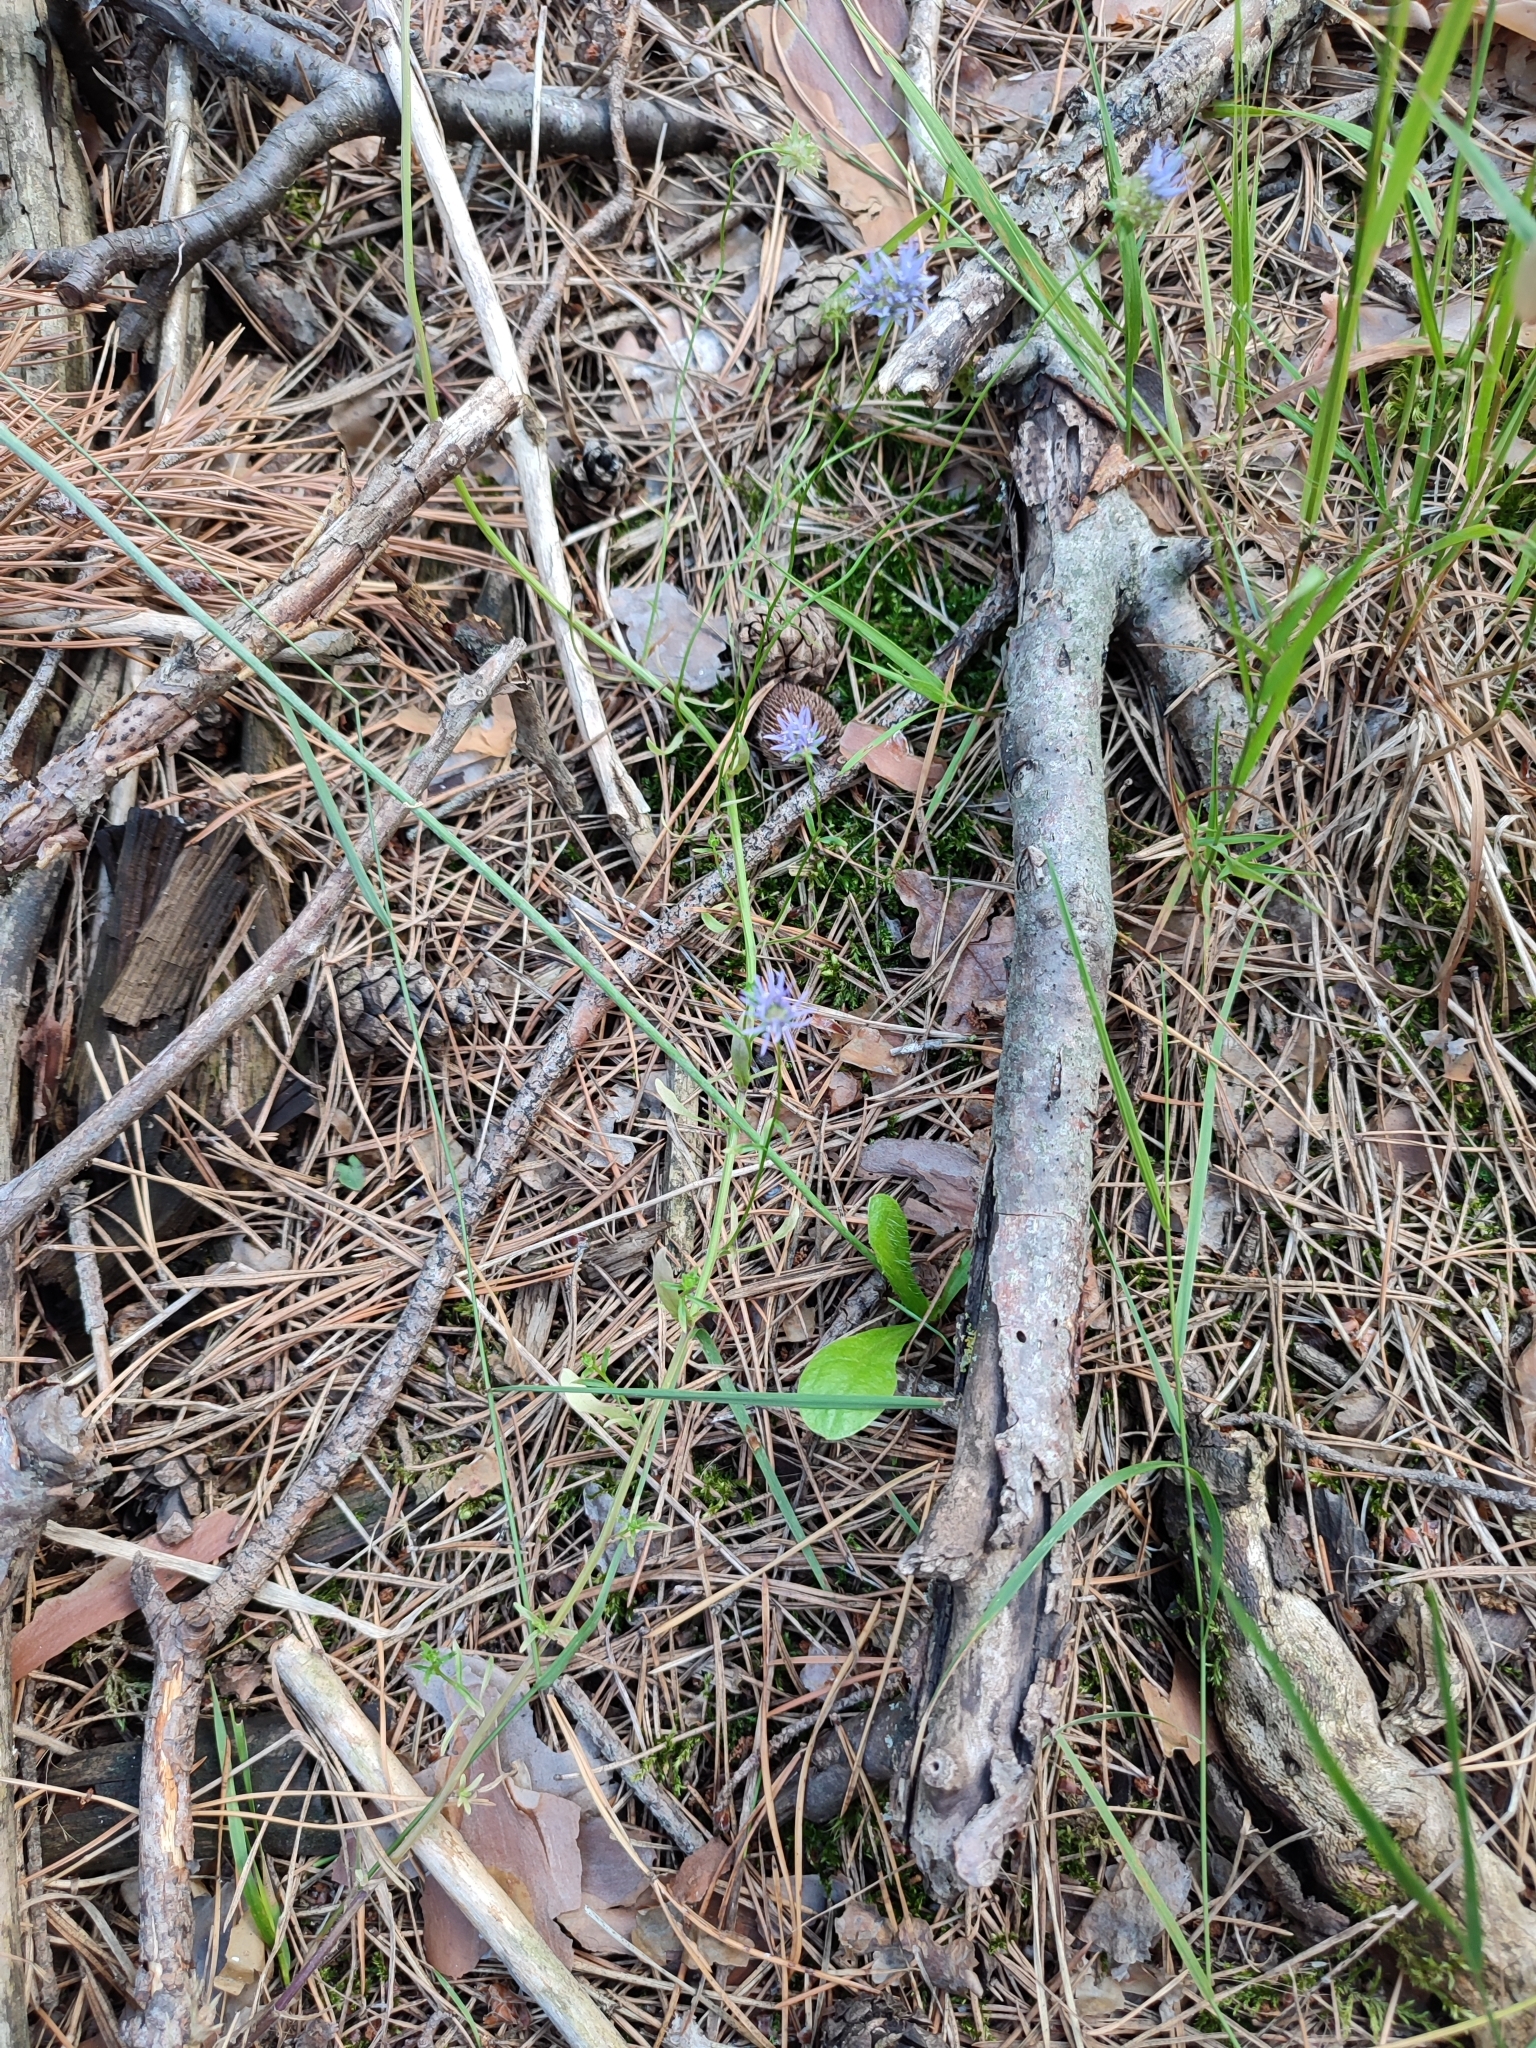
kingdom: Plantae
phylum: Tracheophyta
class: Magnoliopsida
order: Asterales
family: Campanulaceae
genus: Jasione
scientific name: Jasione montana
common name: Sheep's-bit
